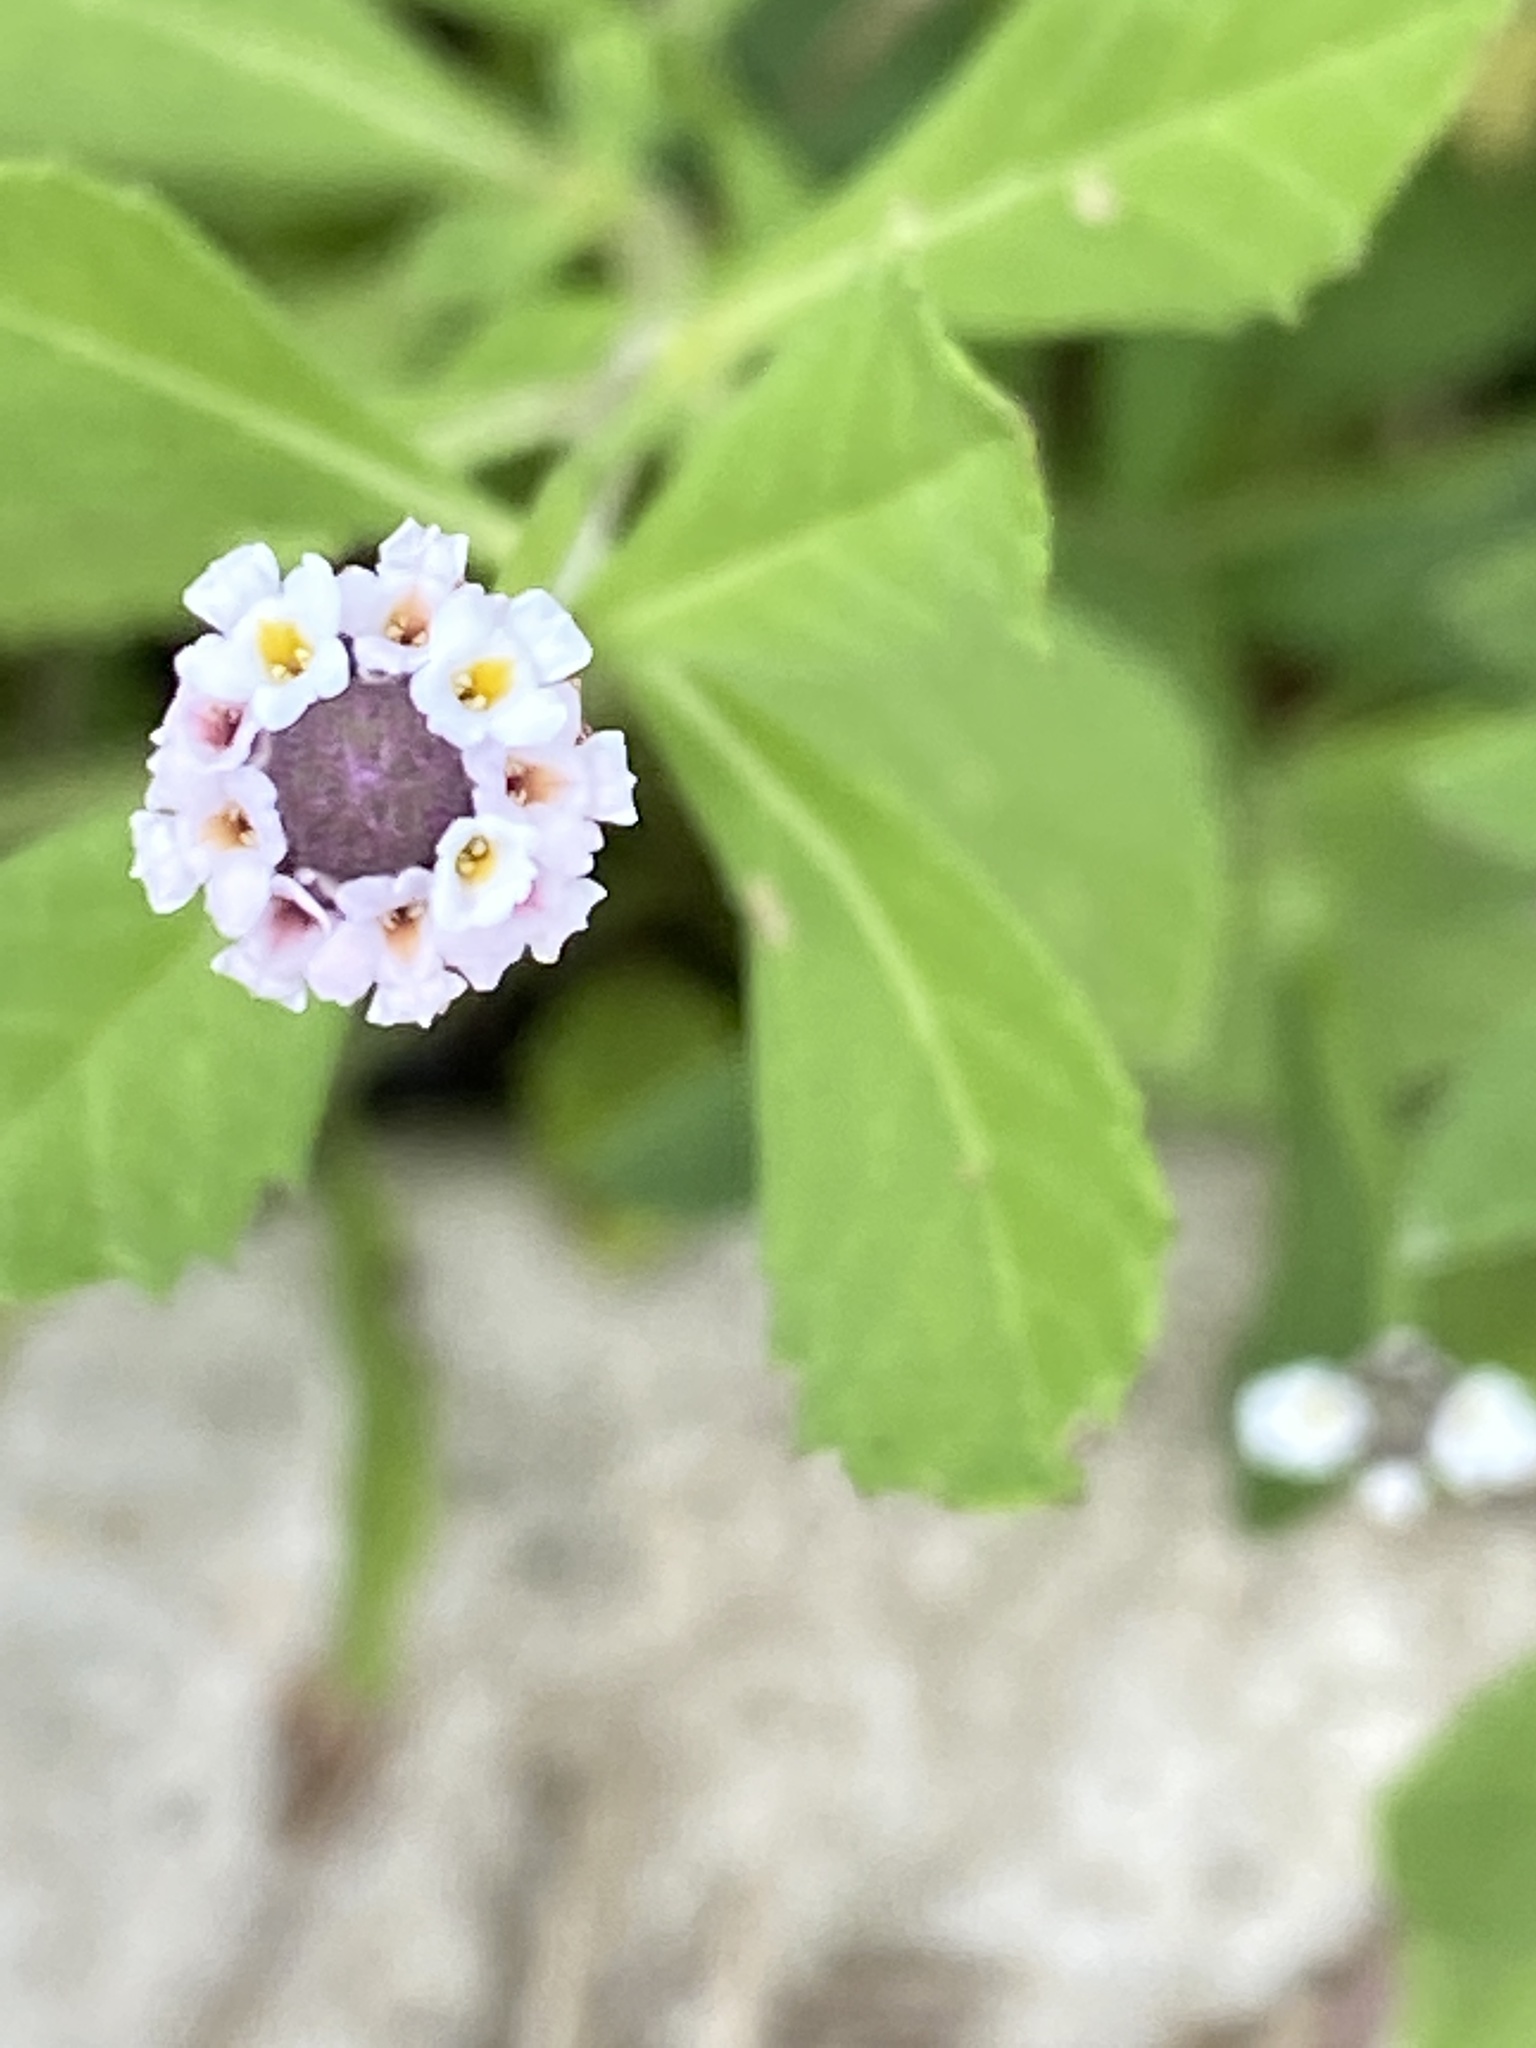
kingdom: Plantae
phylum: Tracheophyta
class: Magnoliopsida
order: Lamiales
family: Verbenaceae
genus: Phyla
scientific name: Phyla nodiflora
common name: Frogfruit
